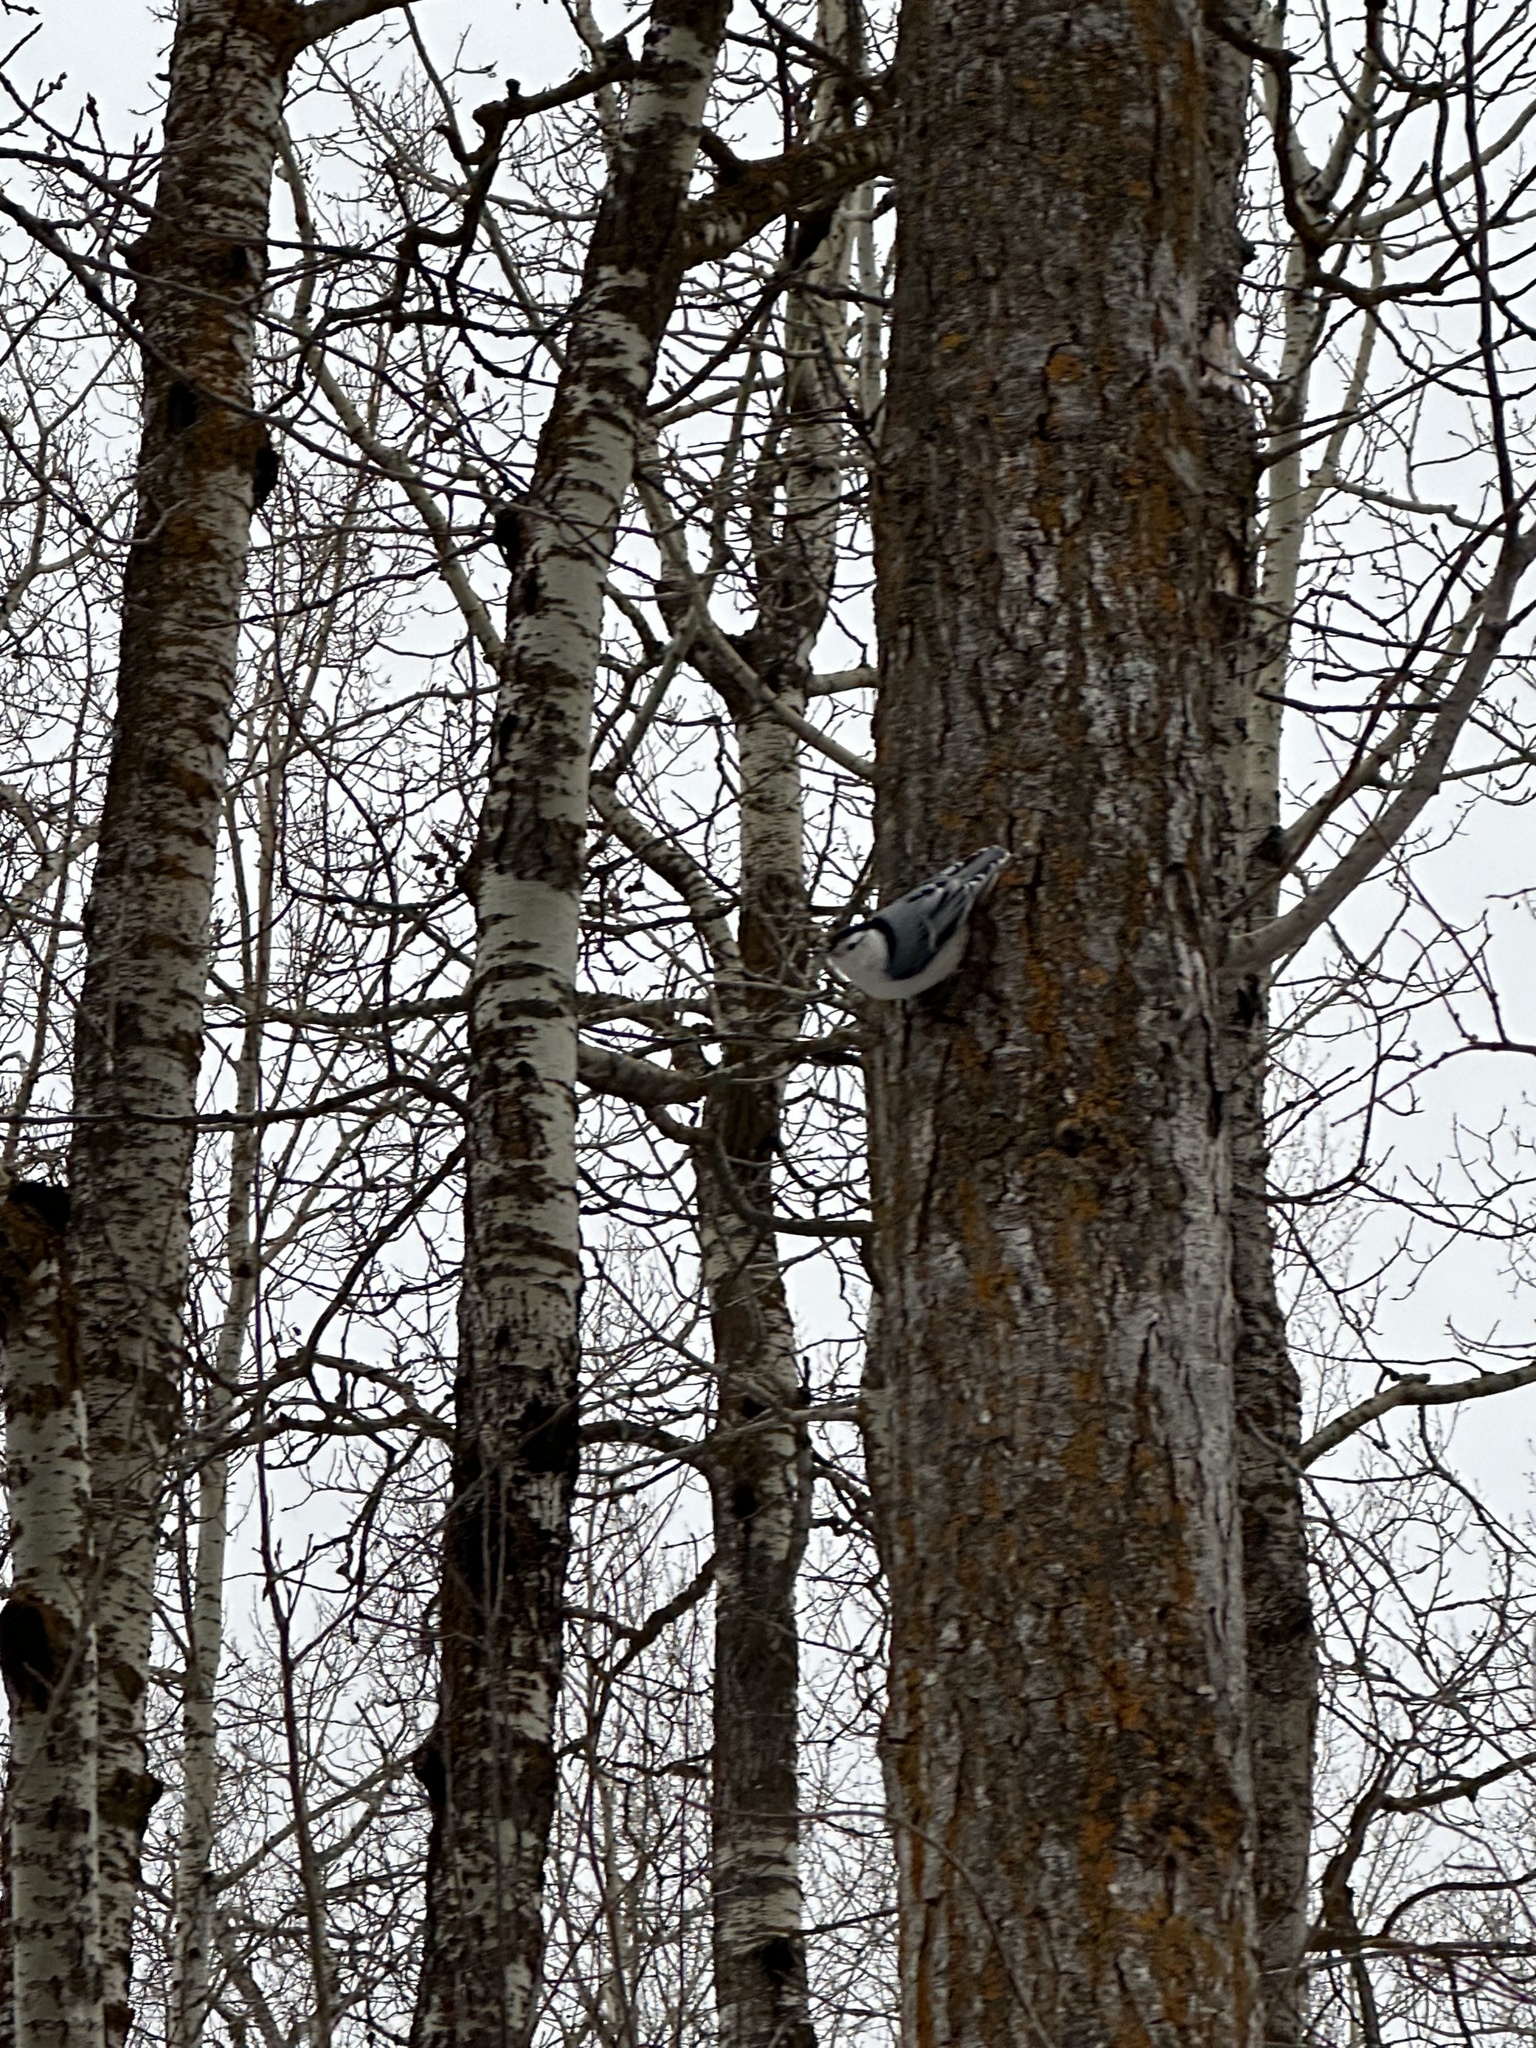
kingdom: Animalia
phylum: Chordata
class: Aves
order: Passeriformes
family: Sittidae
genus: Sitta
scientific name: Sitta carolinensis
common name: White-breasted nuthatch
